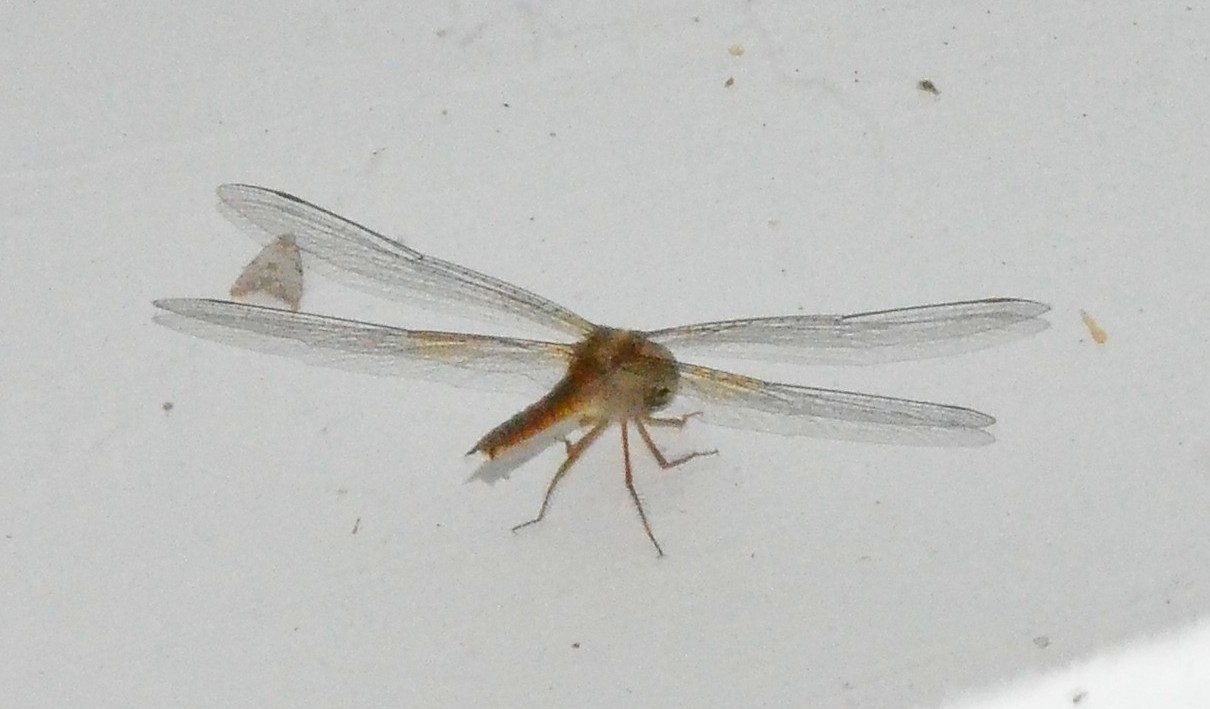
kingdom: Animalia
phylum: Arthropoda
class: Insecta
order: Odonata
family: Libellulidae
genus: Tholymis
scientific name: Tholymis tillarga
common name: Coral-tailed cloud wing
